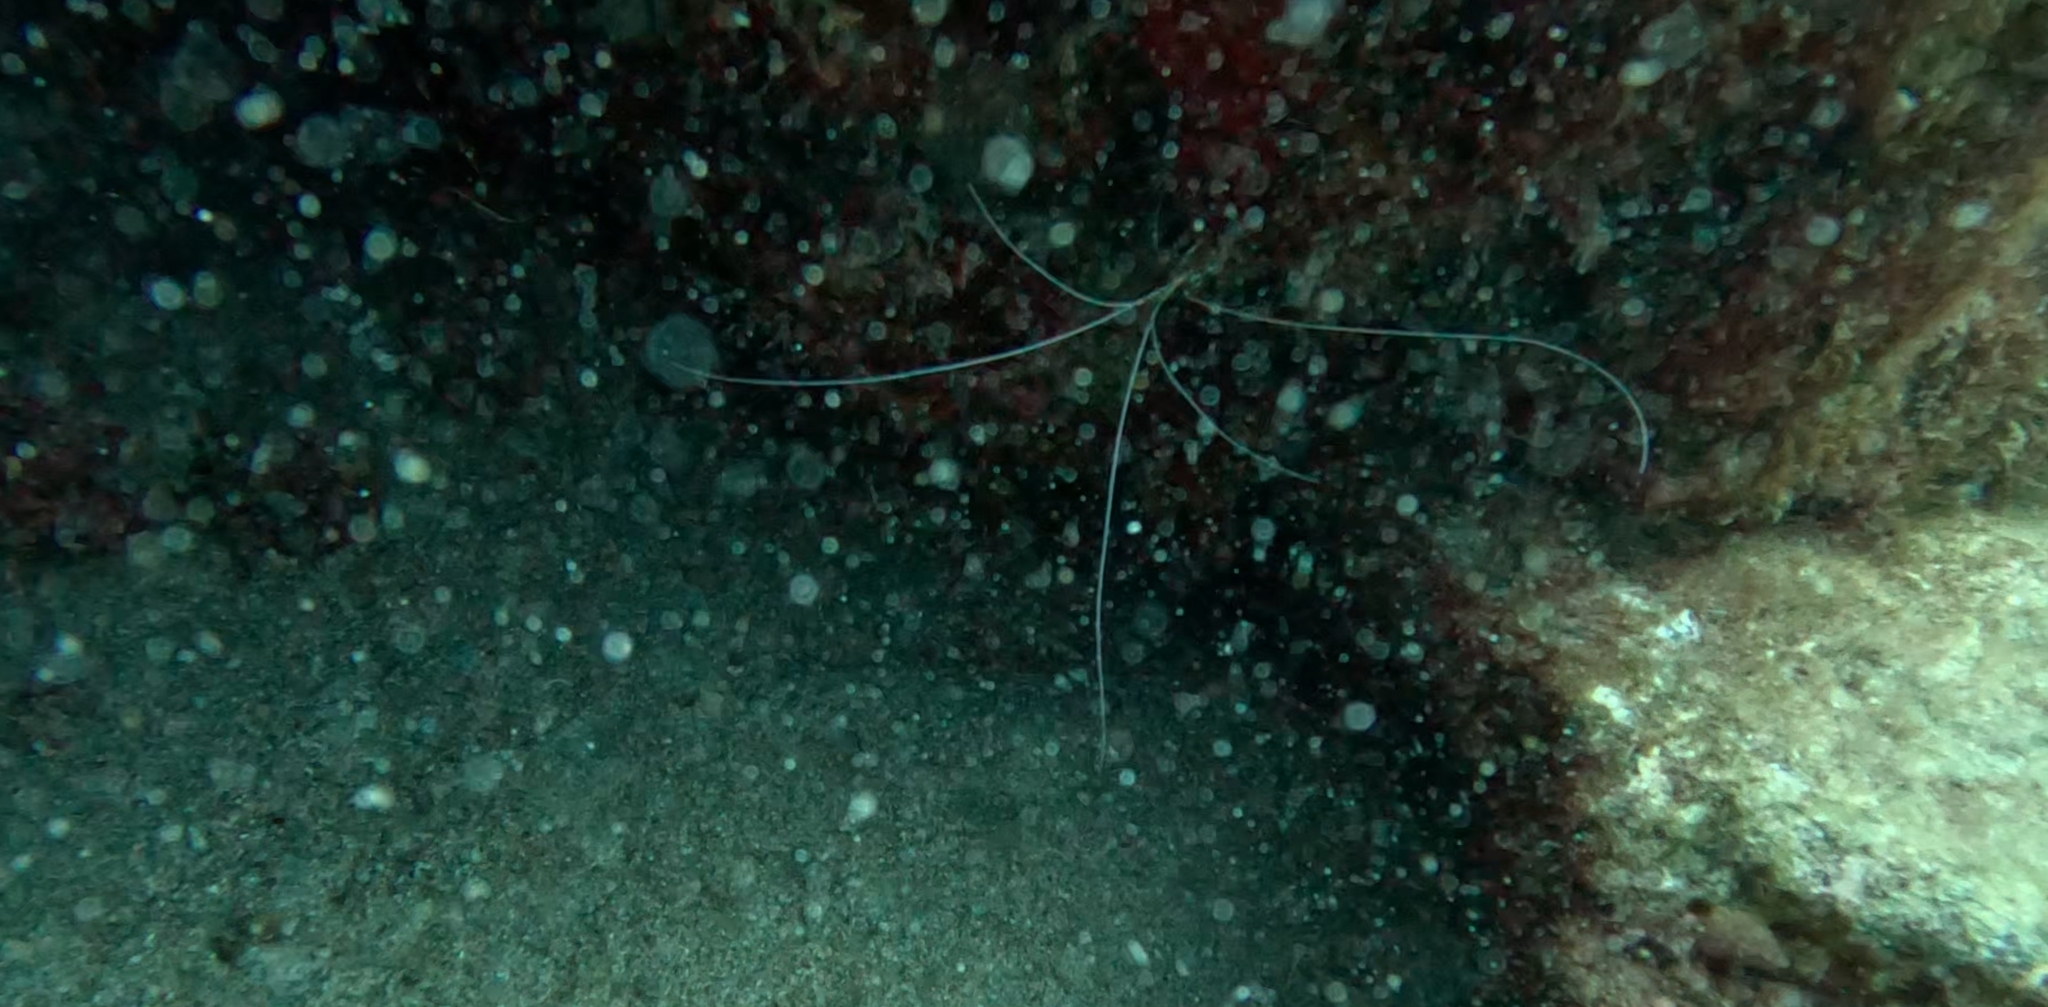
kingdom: Animalia
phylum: Arthropoda
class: Malacostraca
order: Decapoda
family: Lysmatidae
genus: Lysmata
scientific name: Lysmata grabhami
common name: Scarlet-striped cleaning shrimp
